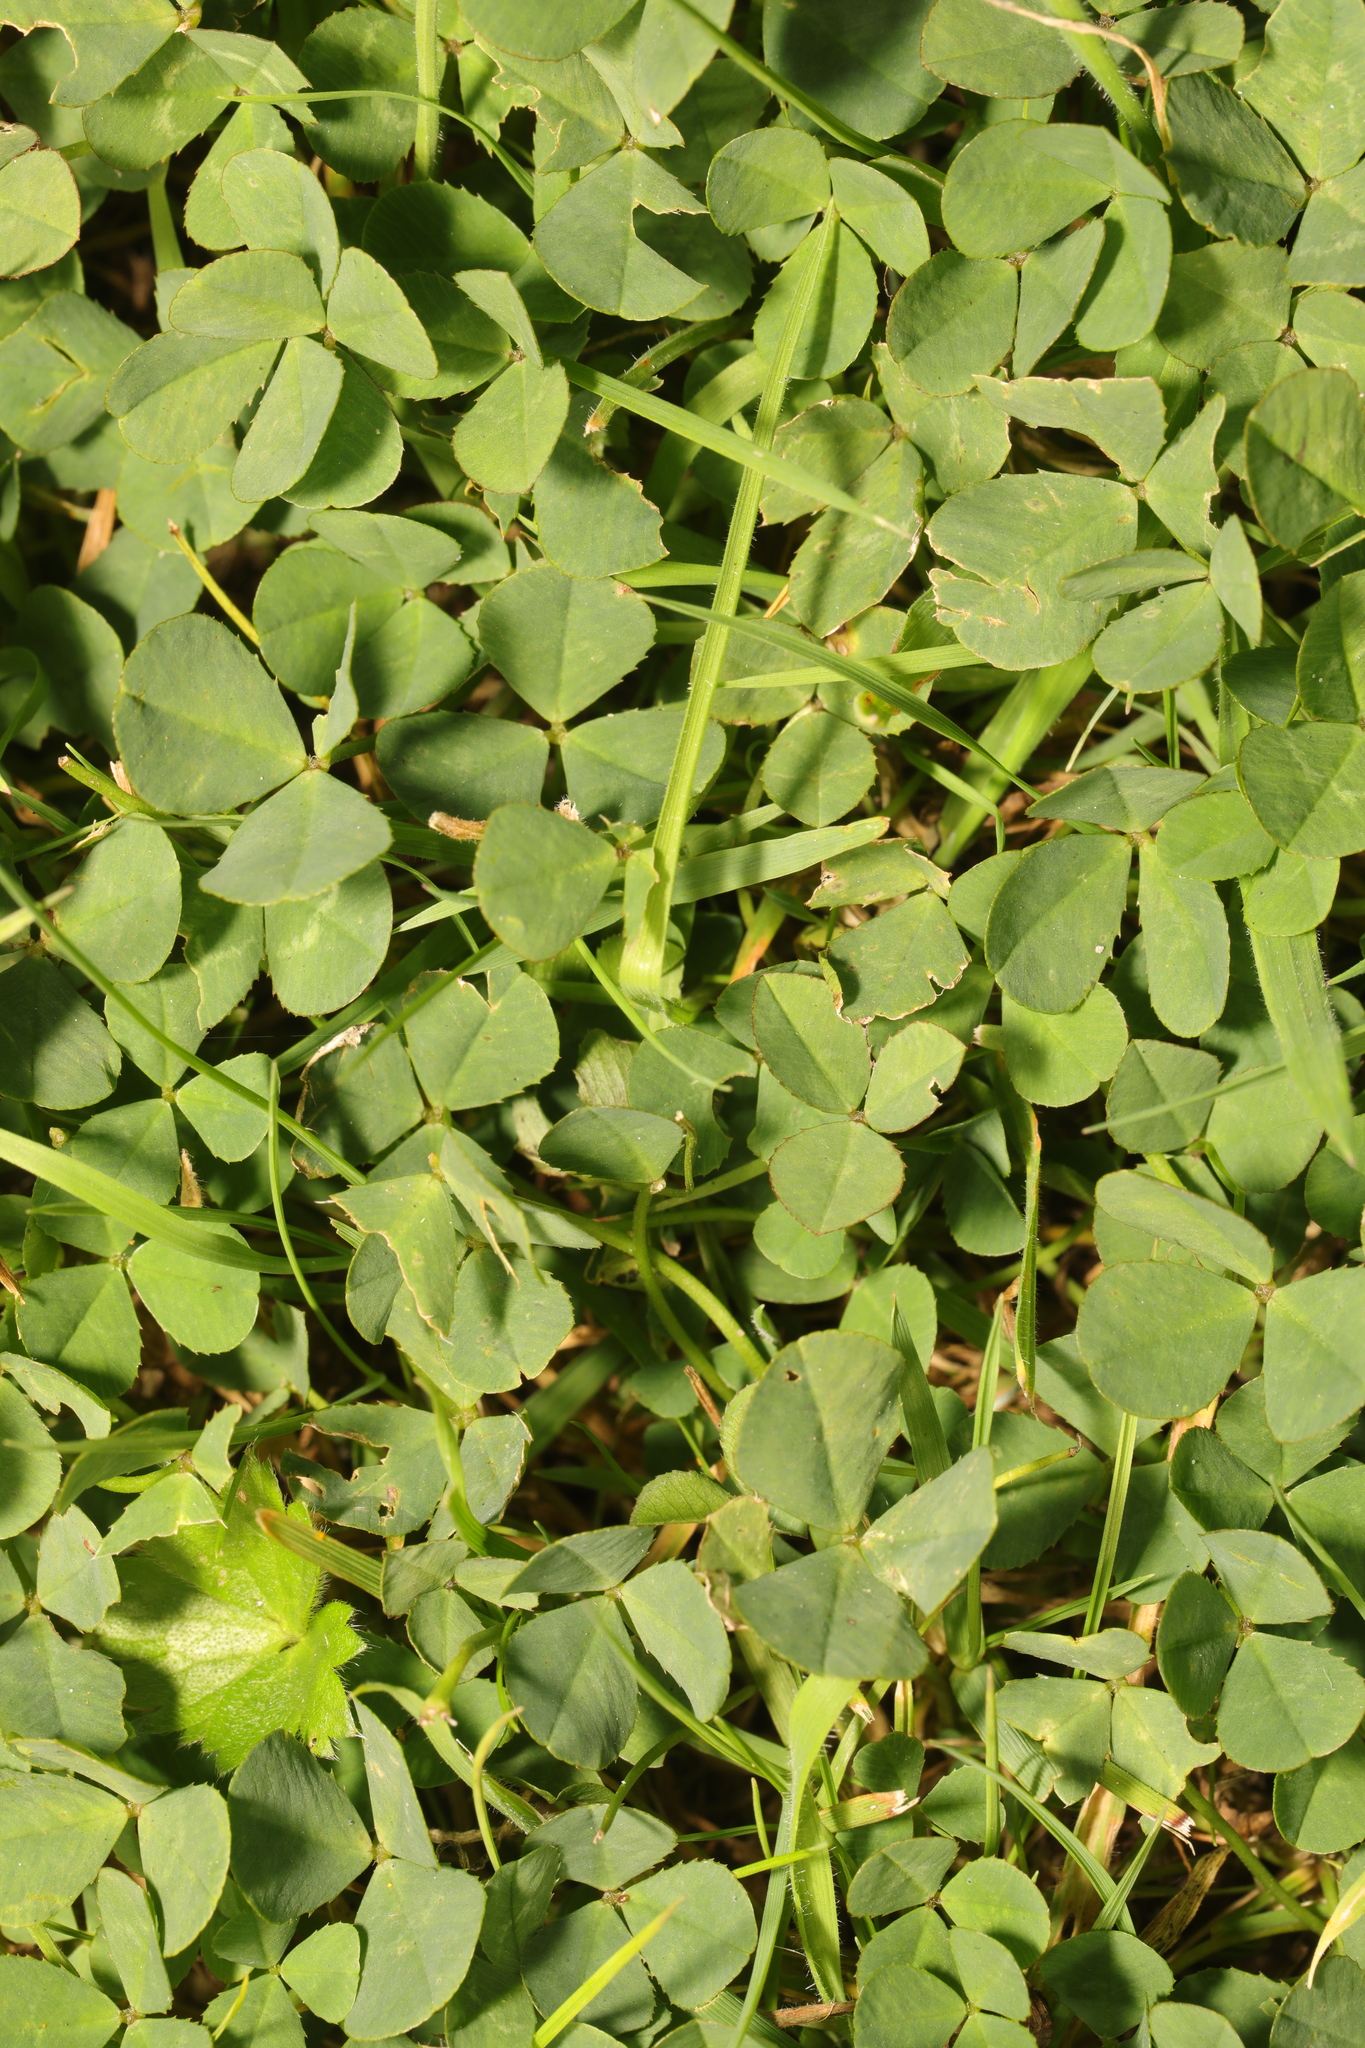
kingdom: Plantae
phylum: Tracheophyta
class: Magnoliopsida
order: Fabales
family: Fabaceae
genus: Trifolium
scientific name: Trifolium repens
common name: White clover
